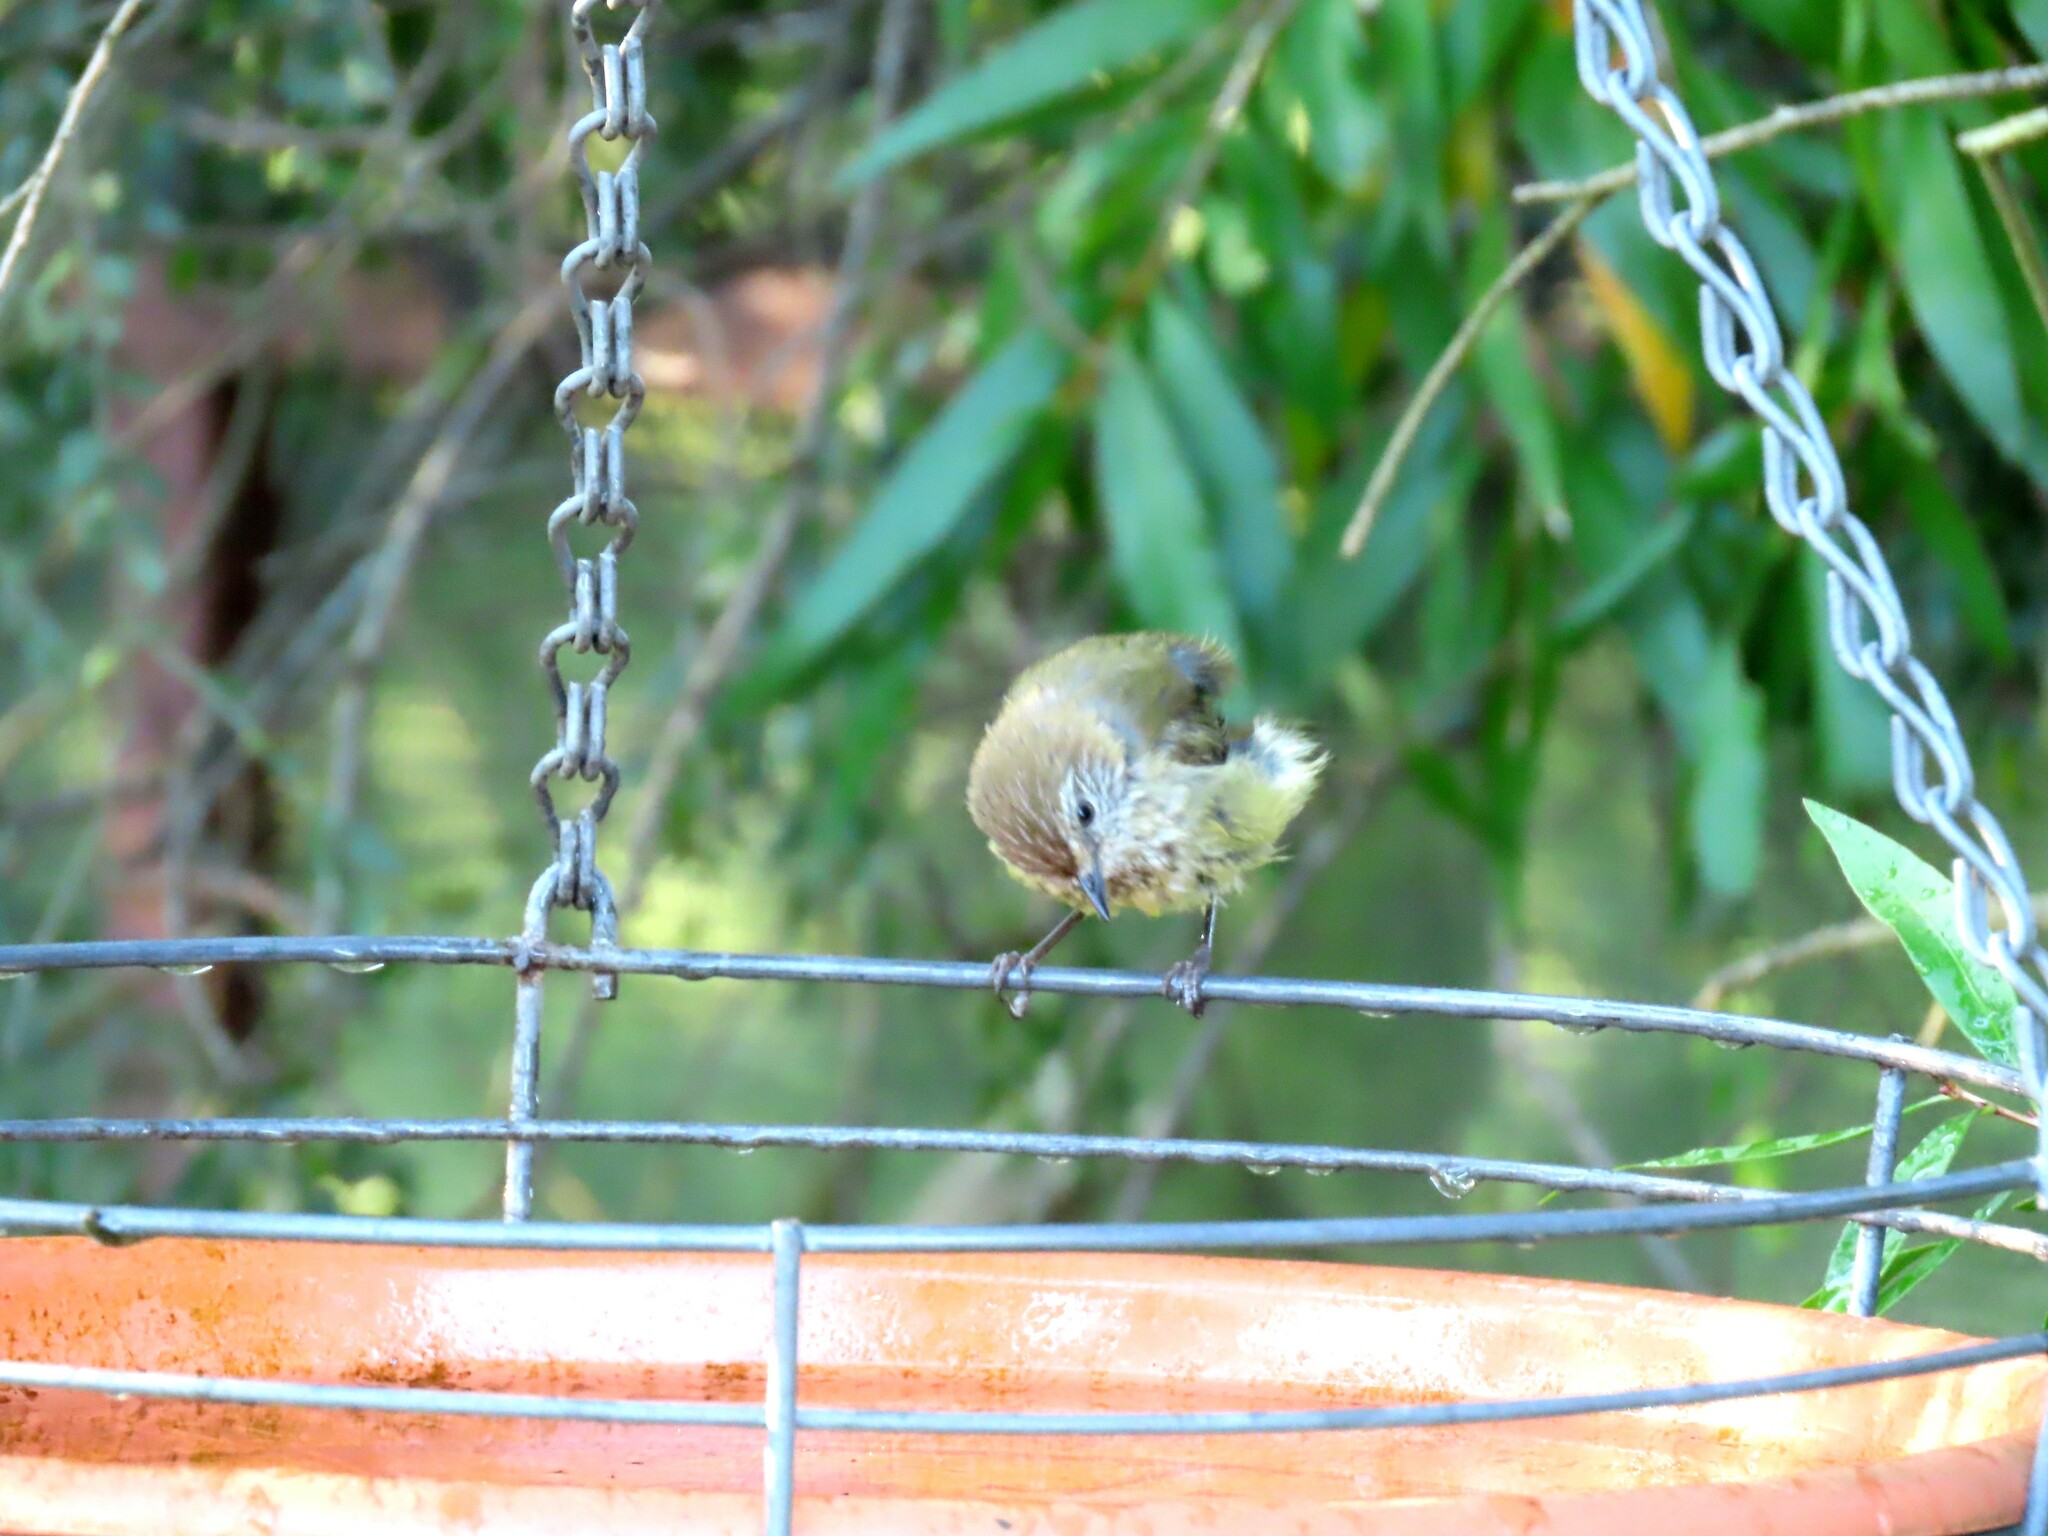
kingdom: Animalia
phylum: Chordata
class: Aves
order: Passeriformes
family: Acanthizidae
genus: Acanthiza
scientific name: Acanthiza lineata
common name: Striated thornbill
